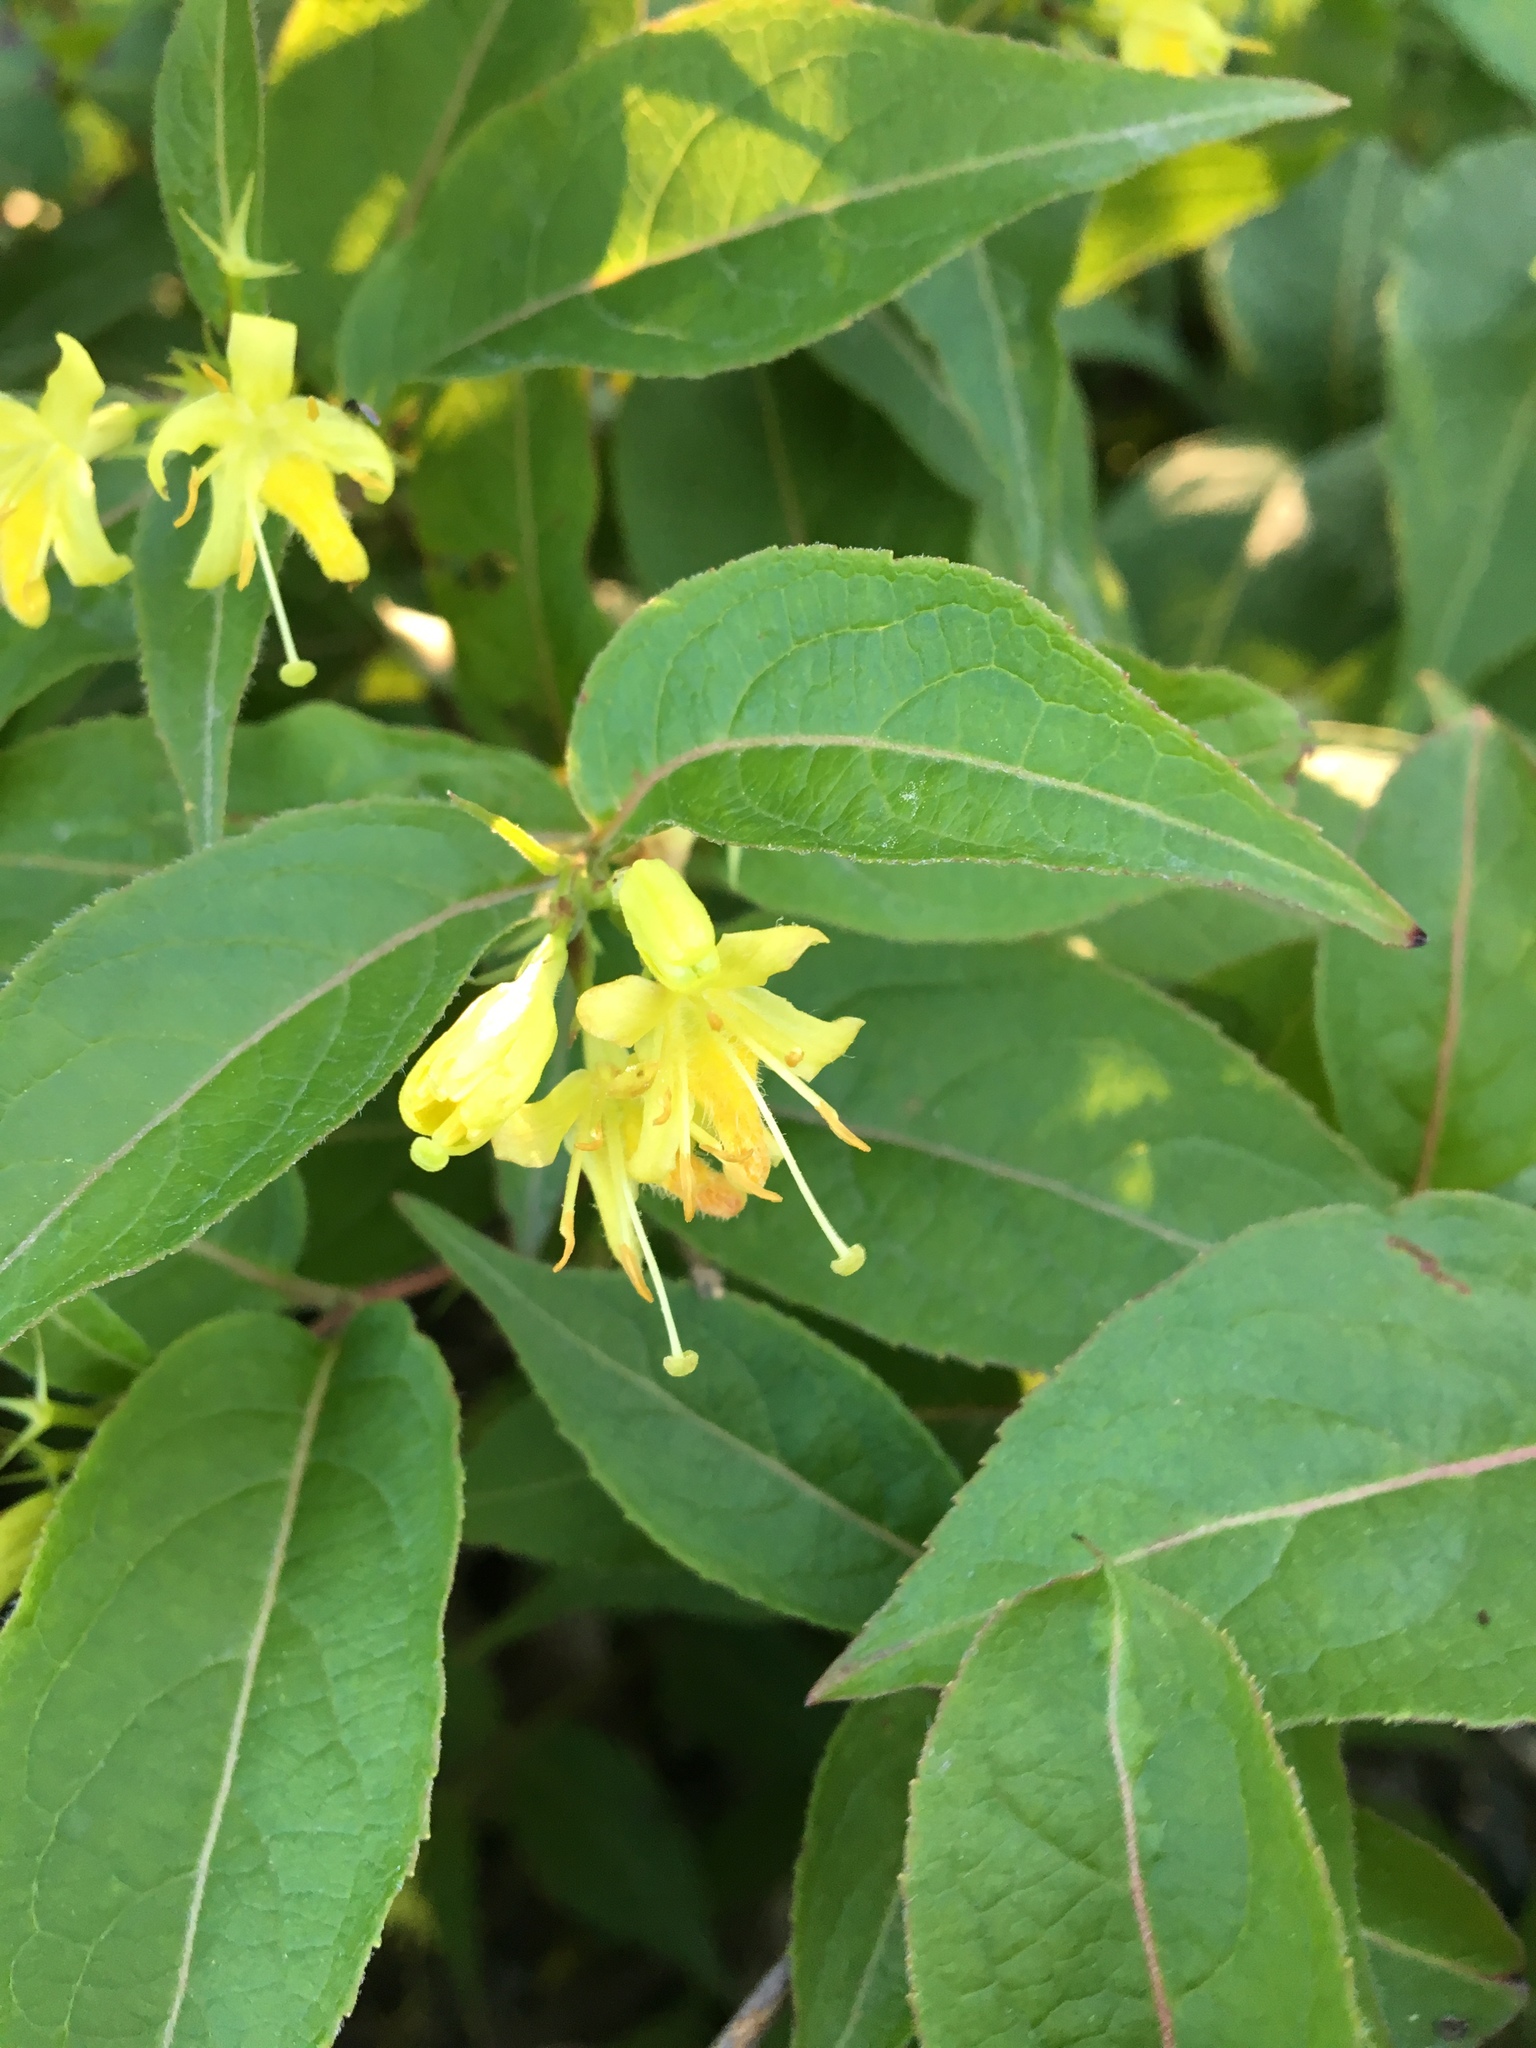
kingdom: Plantae
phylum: Tracheophyta
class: Magnoliopsida
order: Dipsacales
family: Caprifoliaceae
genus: Diervilla
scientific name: Diervilla lonicera
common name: Bush-honeysuckle
